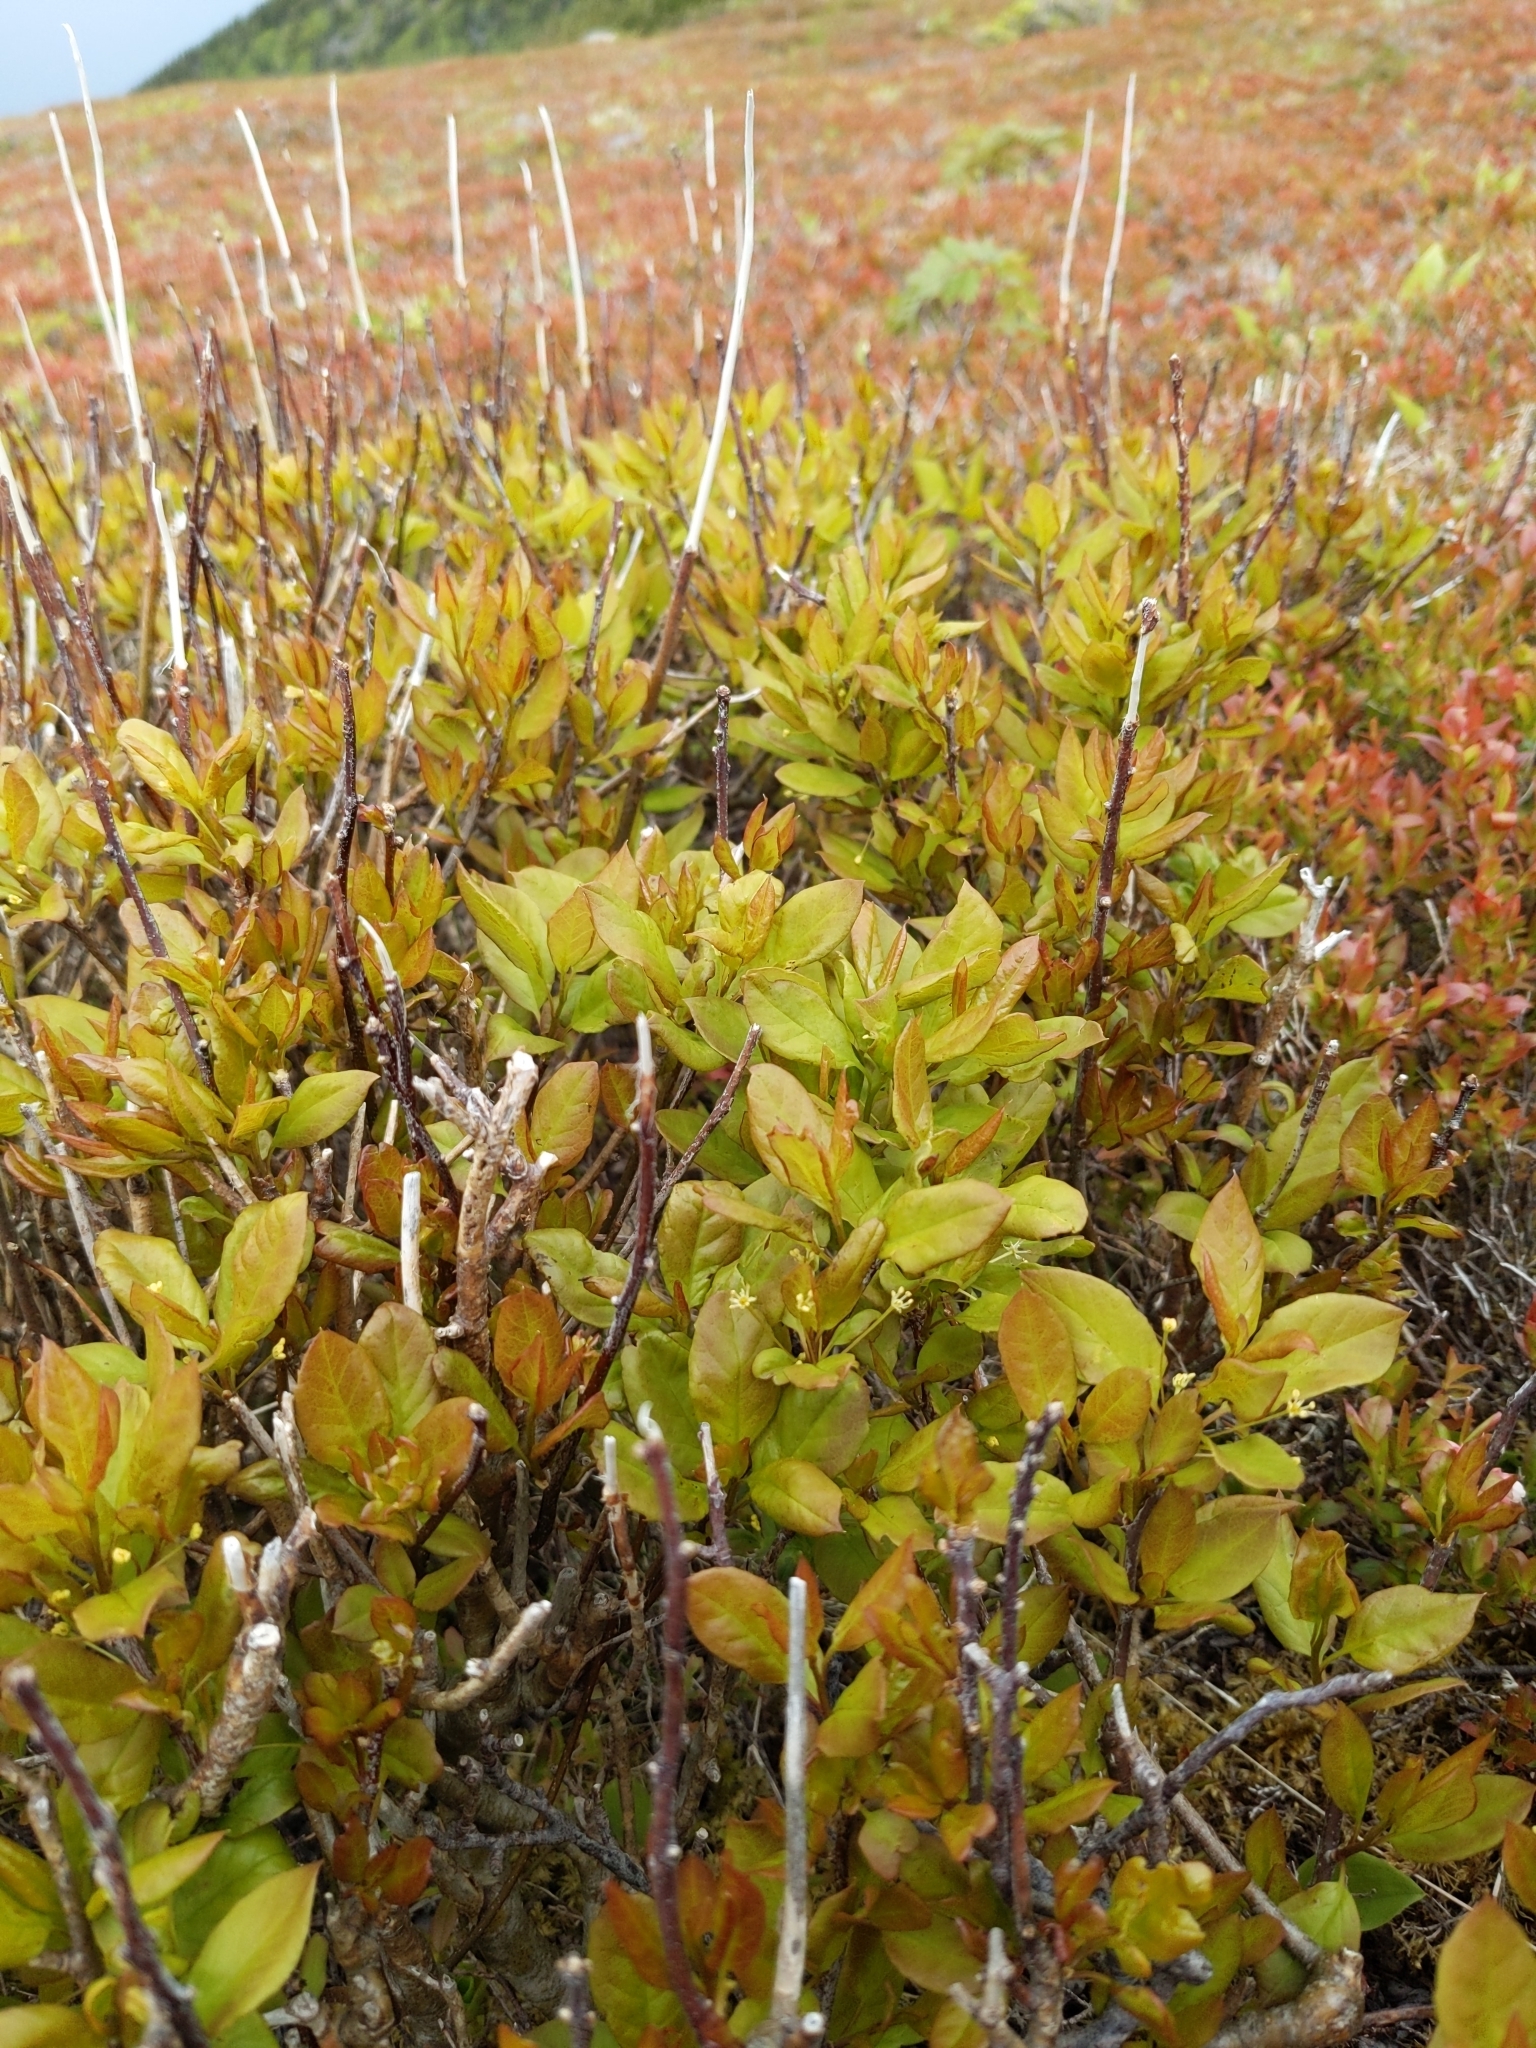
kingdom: Plantae
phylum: Tracheophyta
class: Magnoliopsida
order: Aquifoliales
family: Aquifoliaceae
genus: Ilex
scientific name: Ilex mucronata
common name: Catberry
